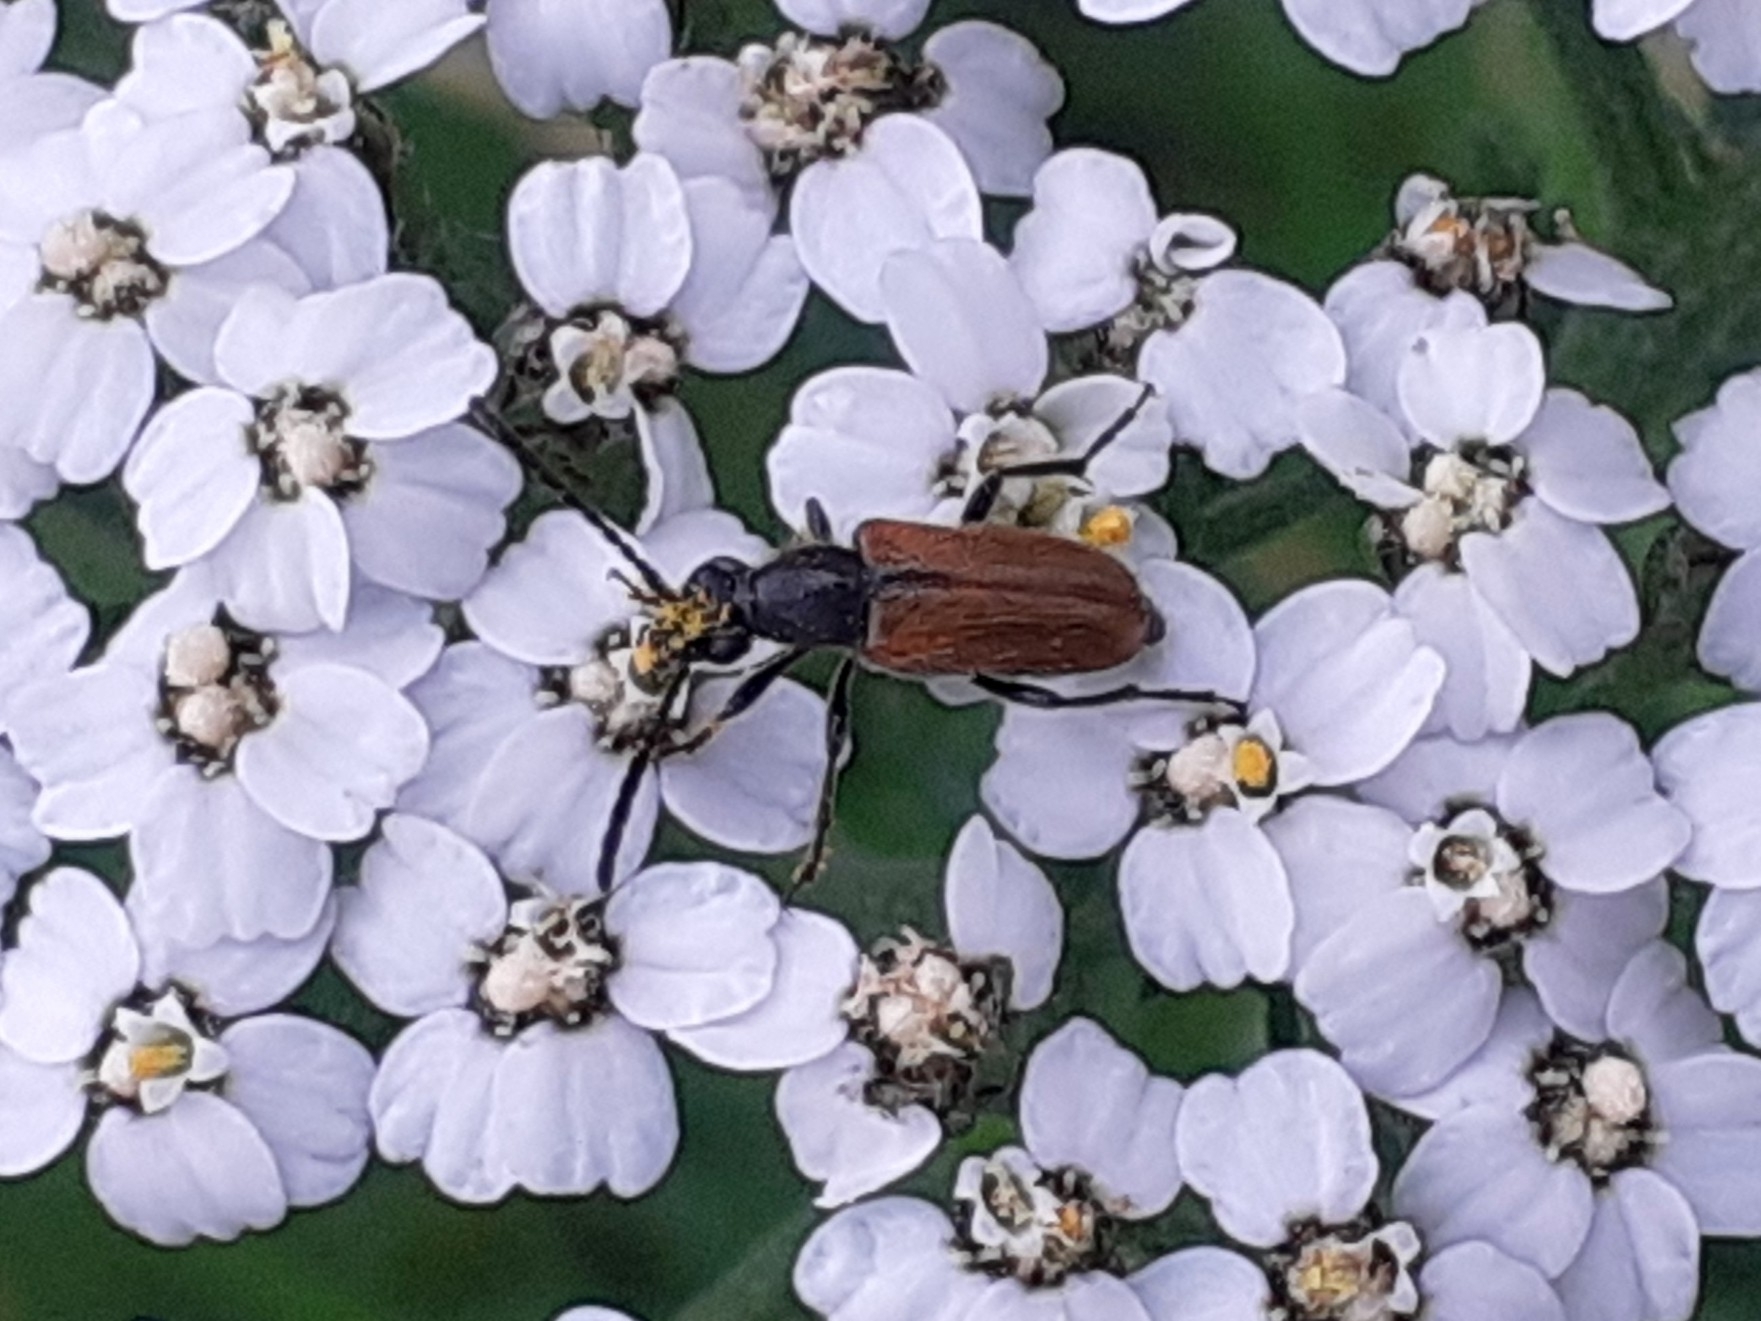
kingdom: Animalia
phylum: Arthropoda
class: Insecta
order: Coleoptera
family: Cerambycidae
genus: Pseudovadonia
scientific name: Pseudovadonia livida
